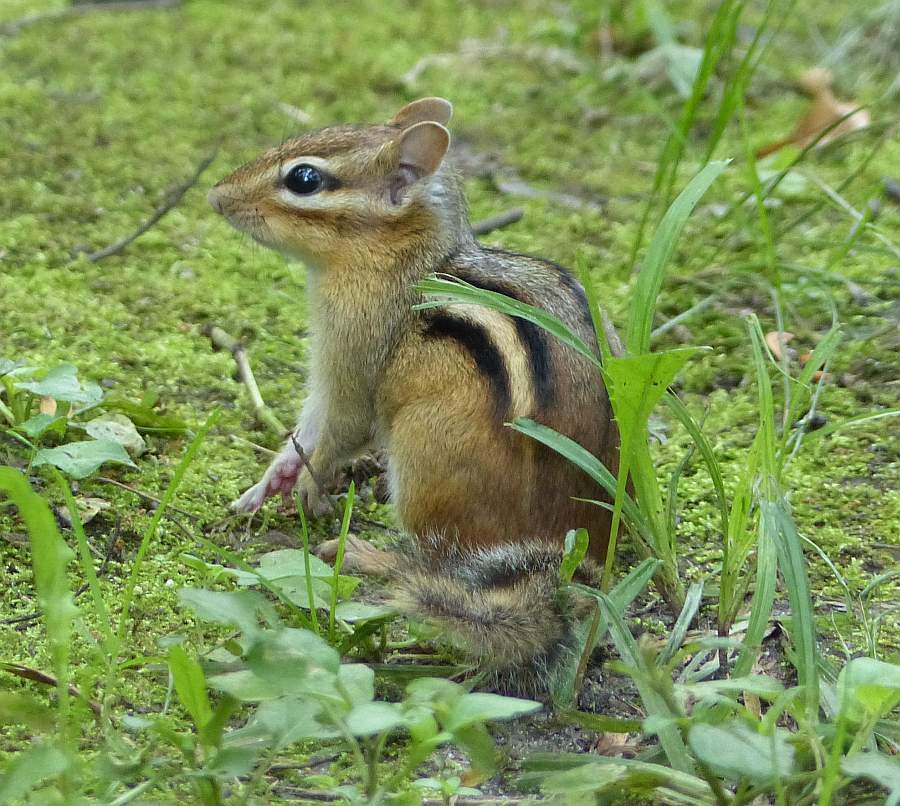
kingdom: Animalia
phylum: Chordata
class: Mammalia
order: Rodentia
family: Sciuridae
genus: Tamias
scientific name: Tamias striatus
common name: Eastern chipmunk
